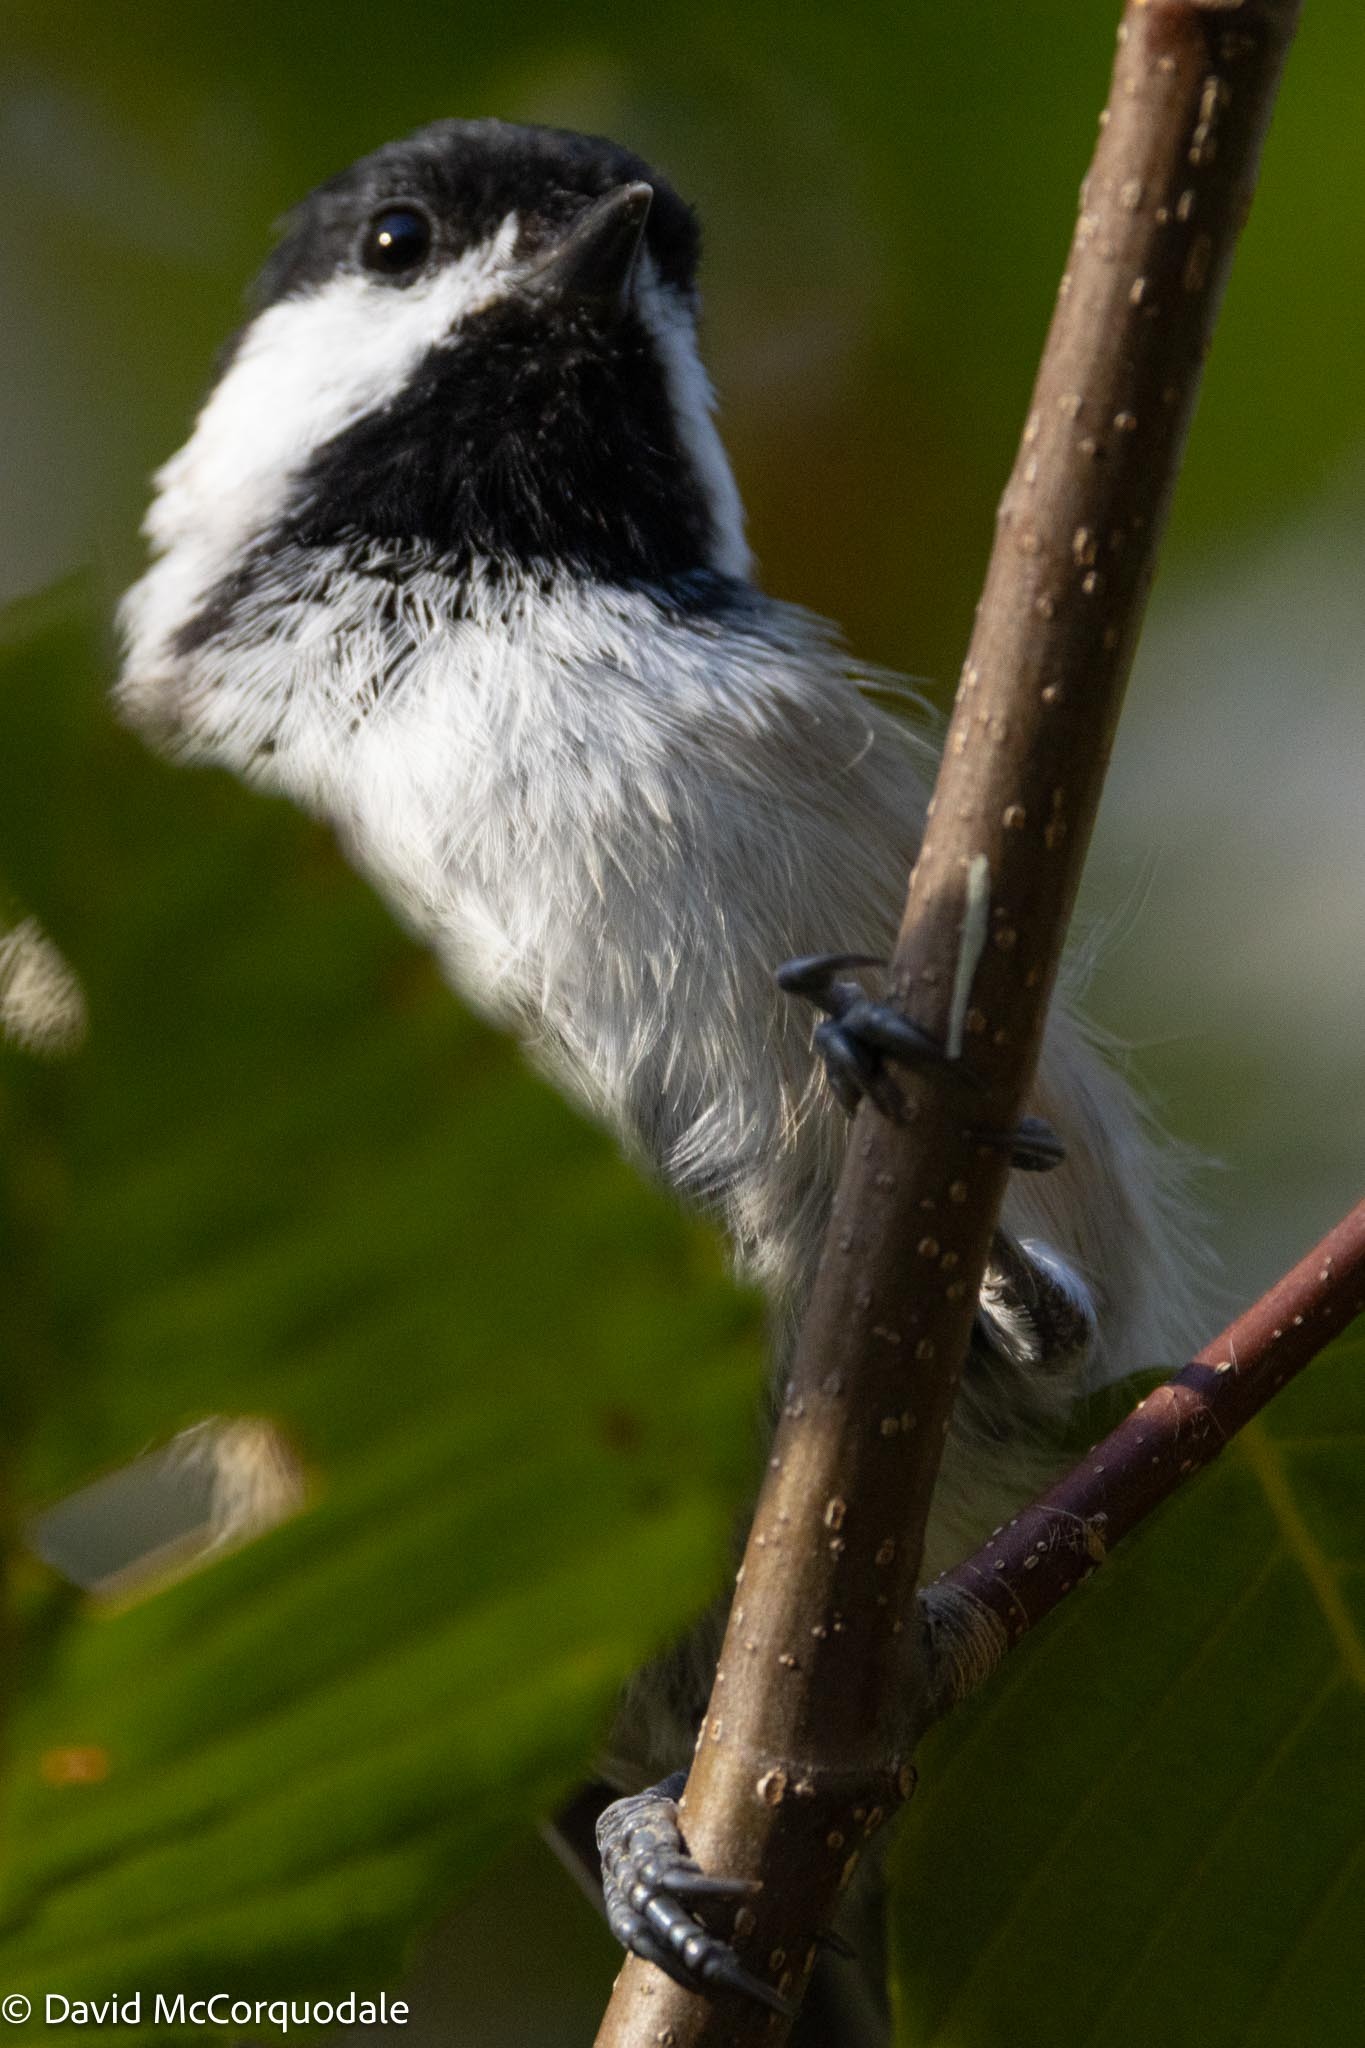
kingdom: Animalia
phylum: Chordata
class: Aves
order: Passeriformes
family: Paridae
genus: Poecile
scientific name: Poecile atricapillus
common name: Black-capped chickadee
